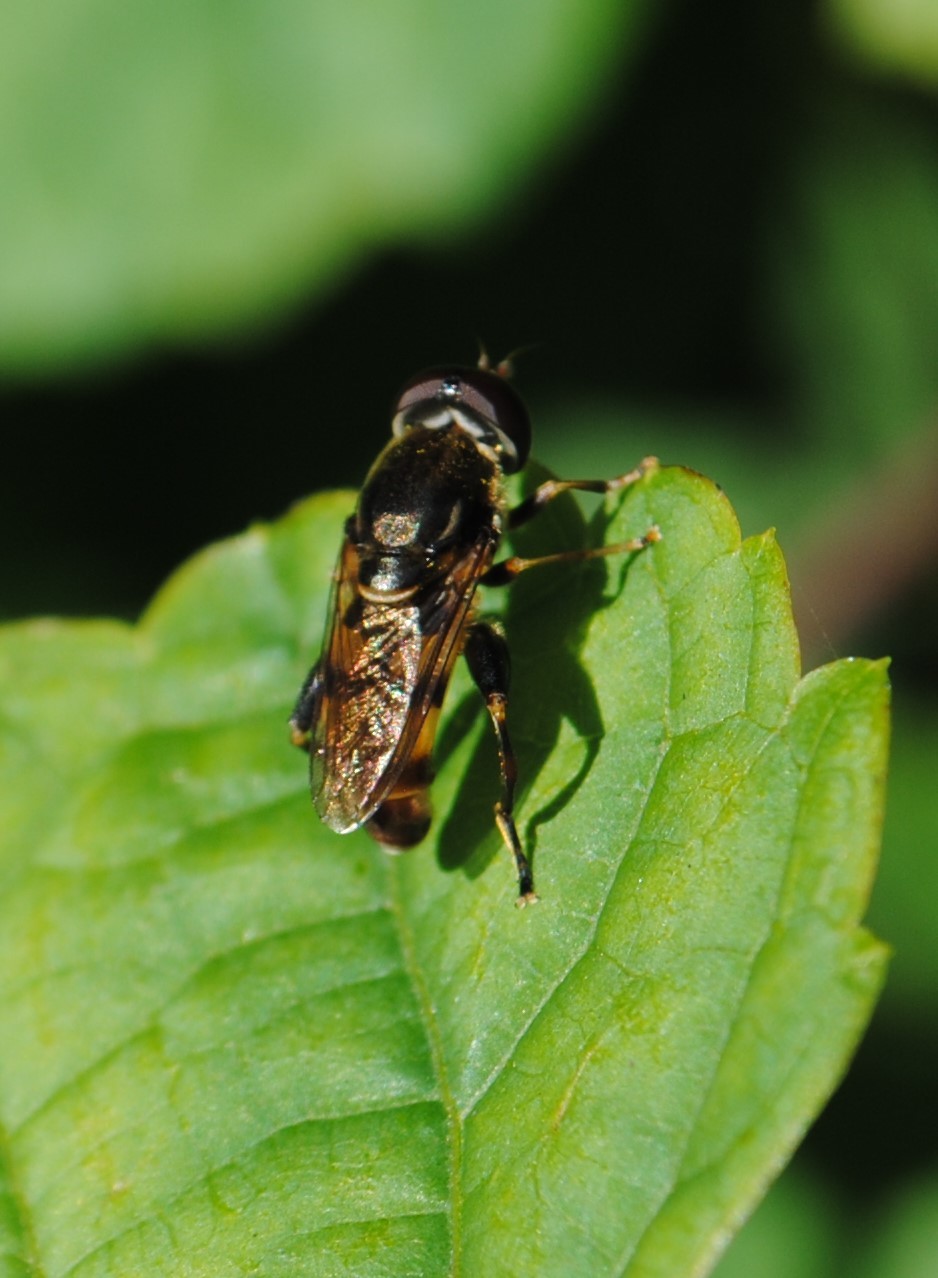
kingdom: Animalia
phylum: Arthropoda
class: Insecta
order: Diptera
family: Syrphidae
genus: Tropidia
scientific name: Tropidia albistylum
